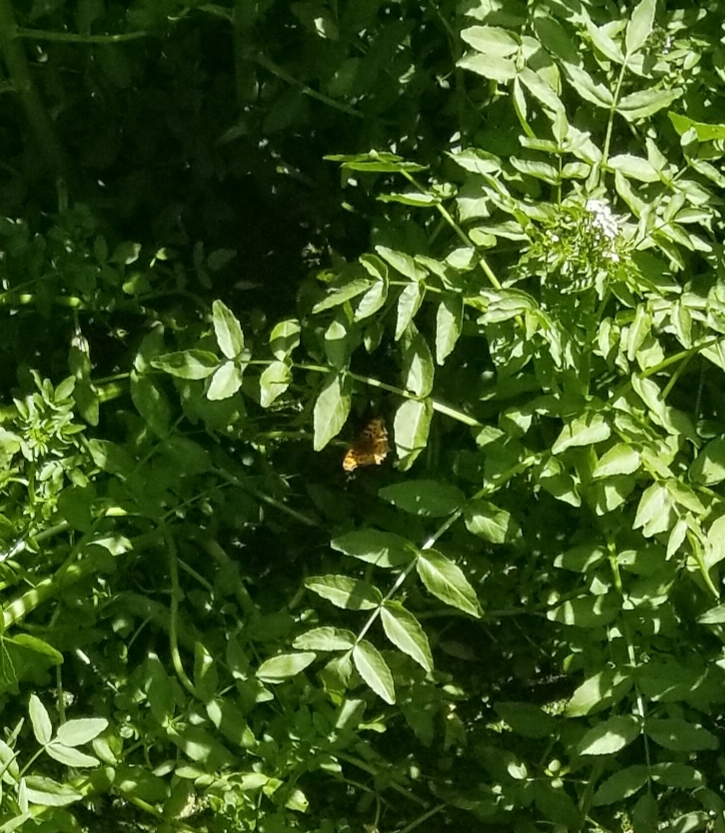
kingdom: Animalia
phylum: Arthropoda
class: Insecta
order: Lepidoptera
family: Nymphalidae
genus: Polygonia
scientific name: Polygonia satyrus
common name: Satyr angle wing
